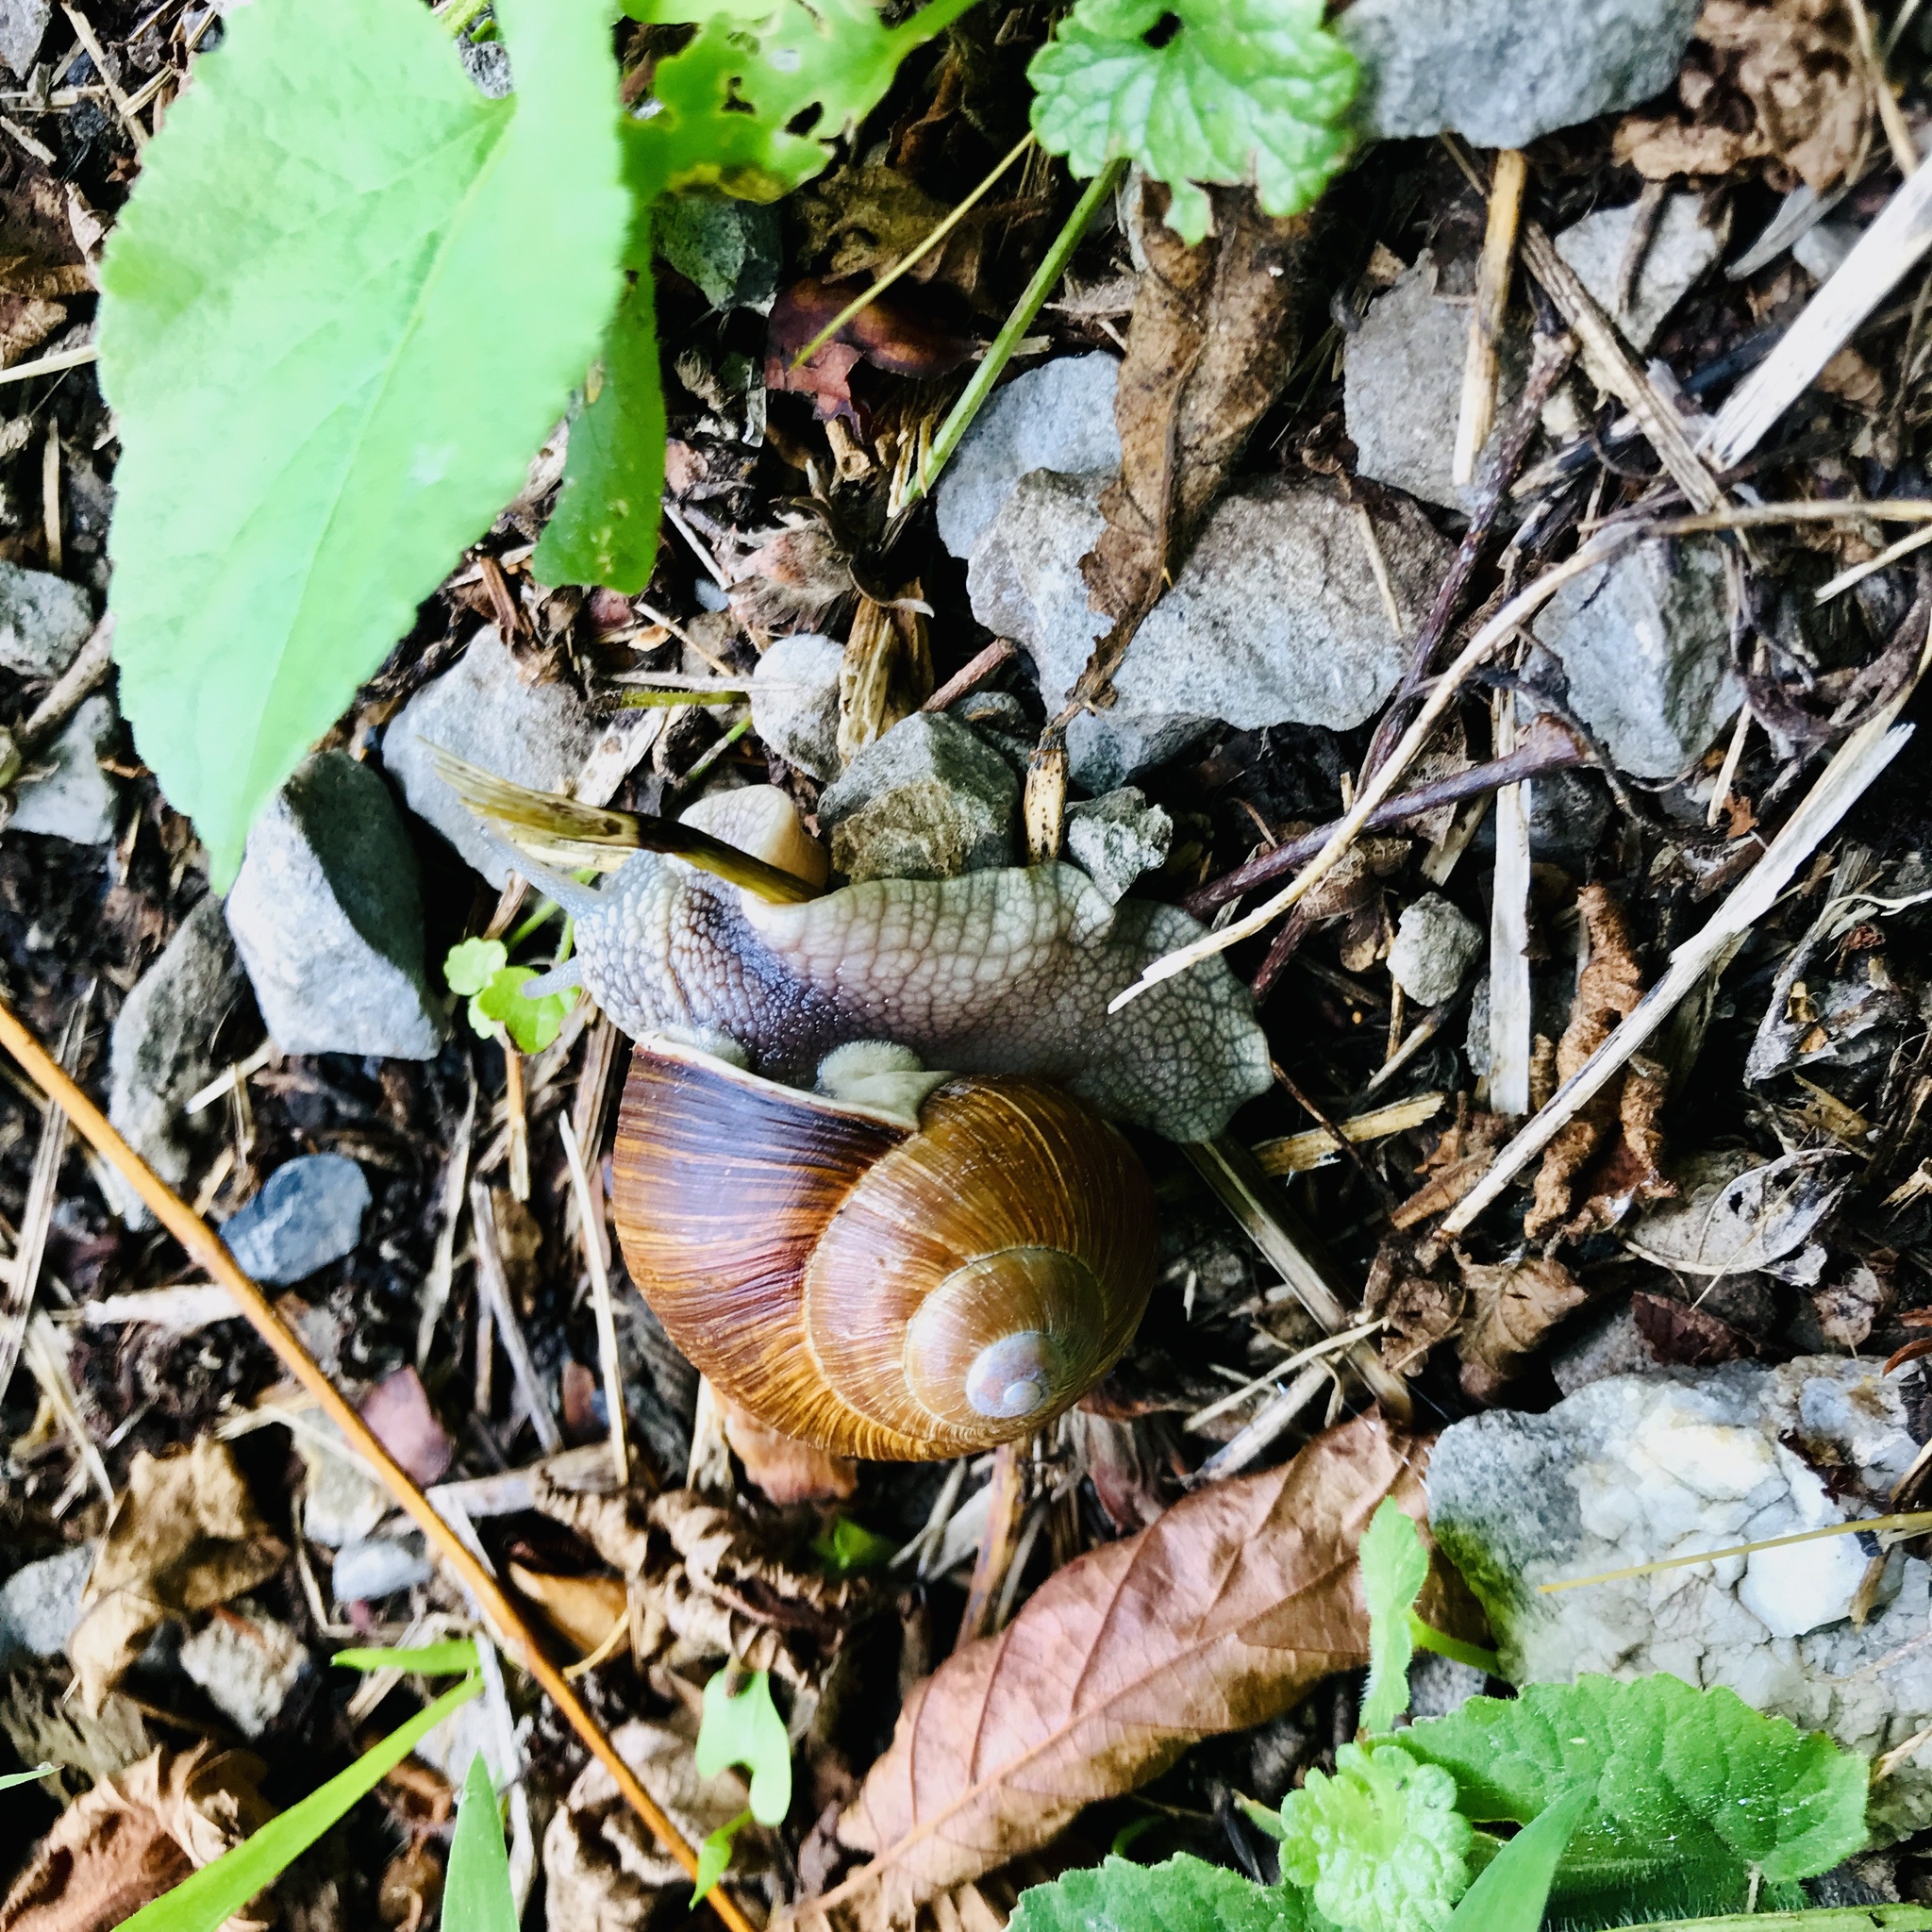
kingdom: Animalia
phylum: Mollusca
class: Gastropoda
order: Stylommatophora
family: Helicidae
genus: Helix
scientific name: Helix pomatia
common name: Roman snail
